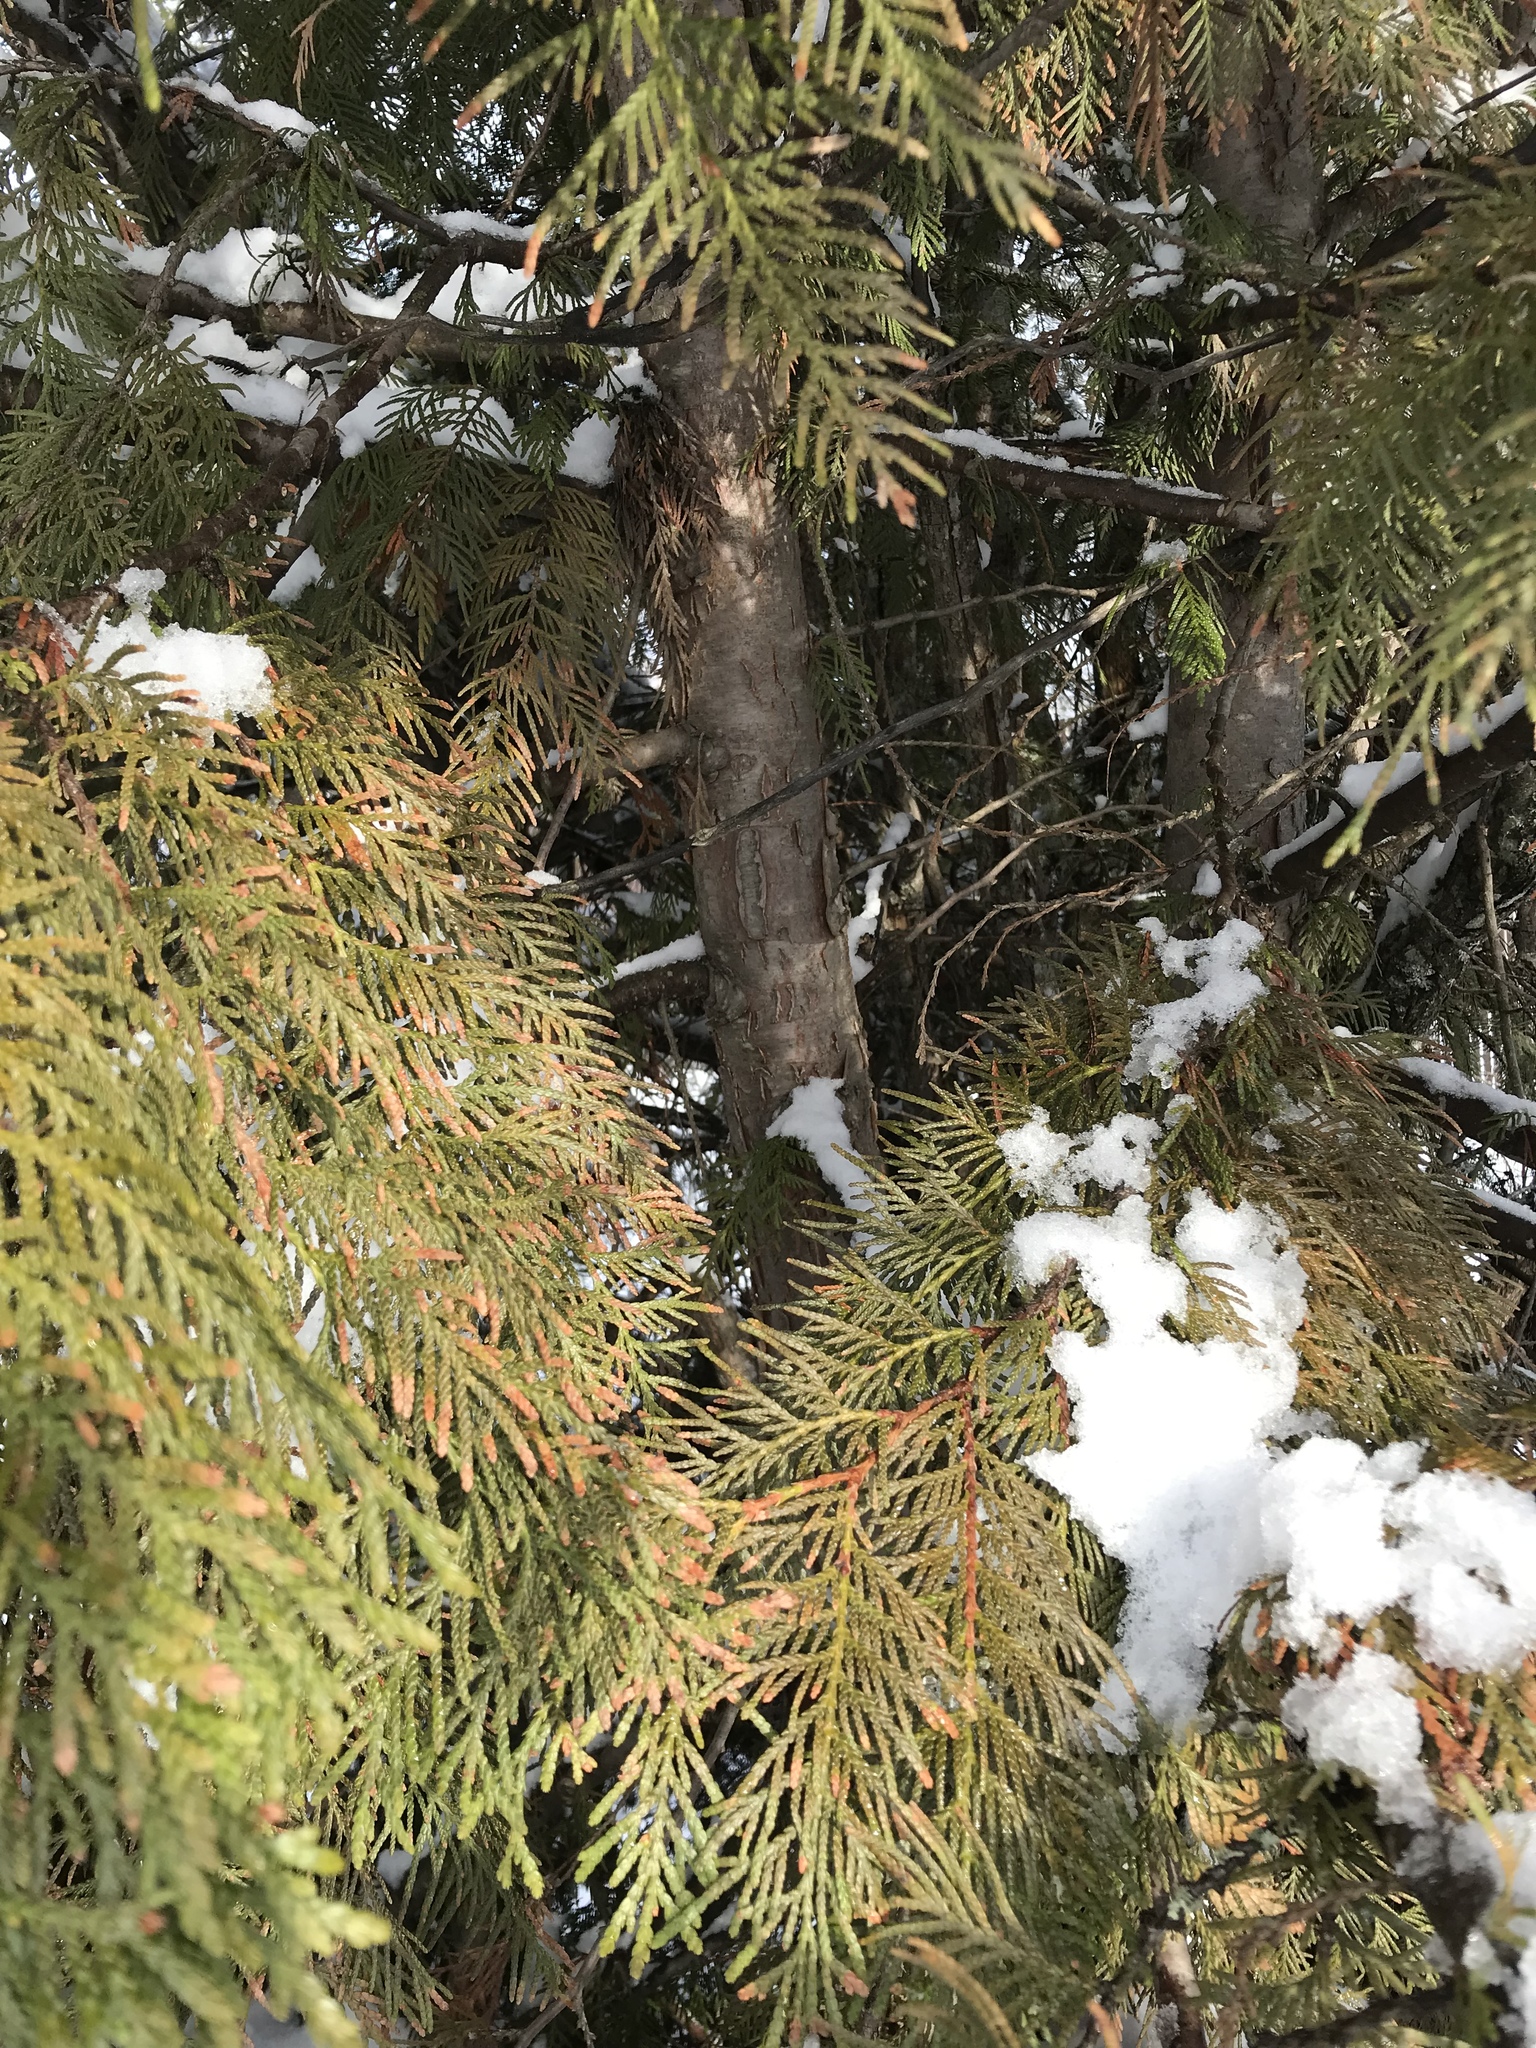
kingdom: Plantae
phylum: Tracheophyta
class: Pinopsida
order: Pinales
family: Cupressaceae
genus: Thuja
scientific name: Thuja plicata
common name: Western red-cedar
